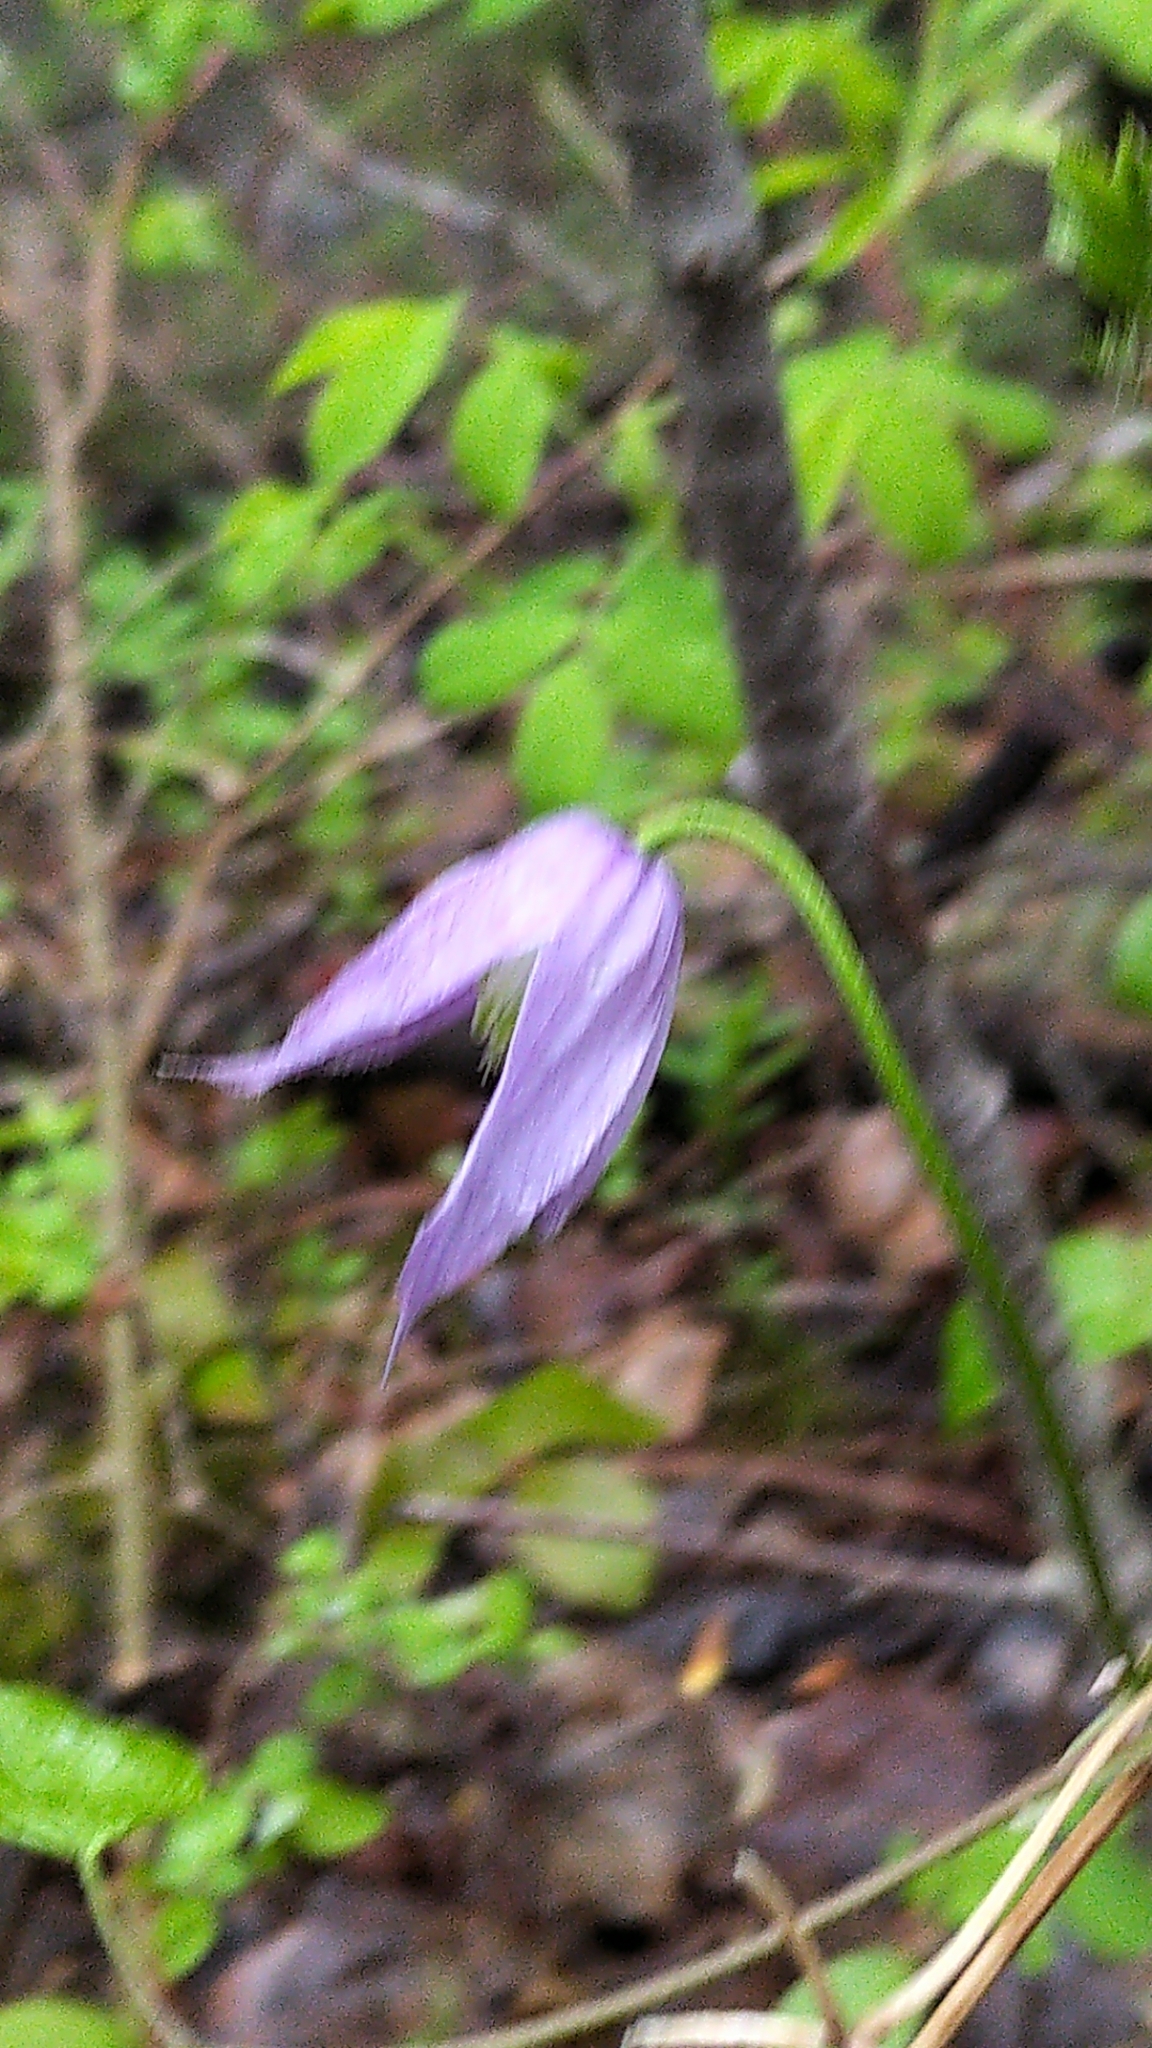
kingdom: Plantae
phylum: Tracheophyta
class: Magnoliopsida
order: Ranunculales
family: Ranunculaceae
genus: Clematis
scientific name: Clematis occidentalis
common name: Purple clematis
